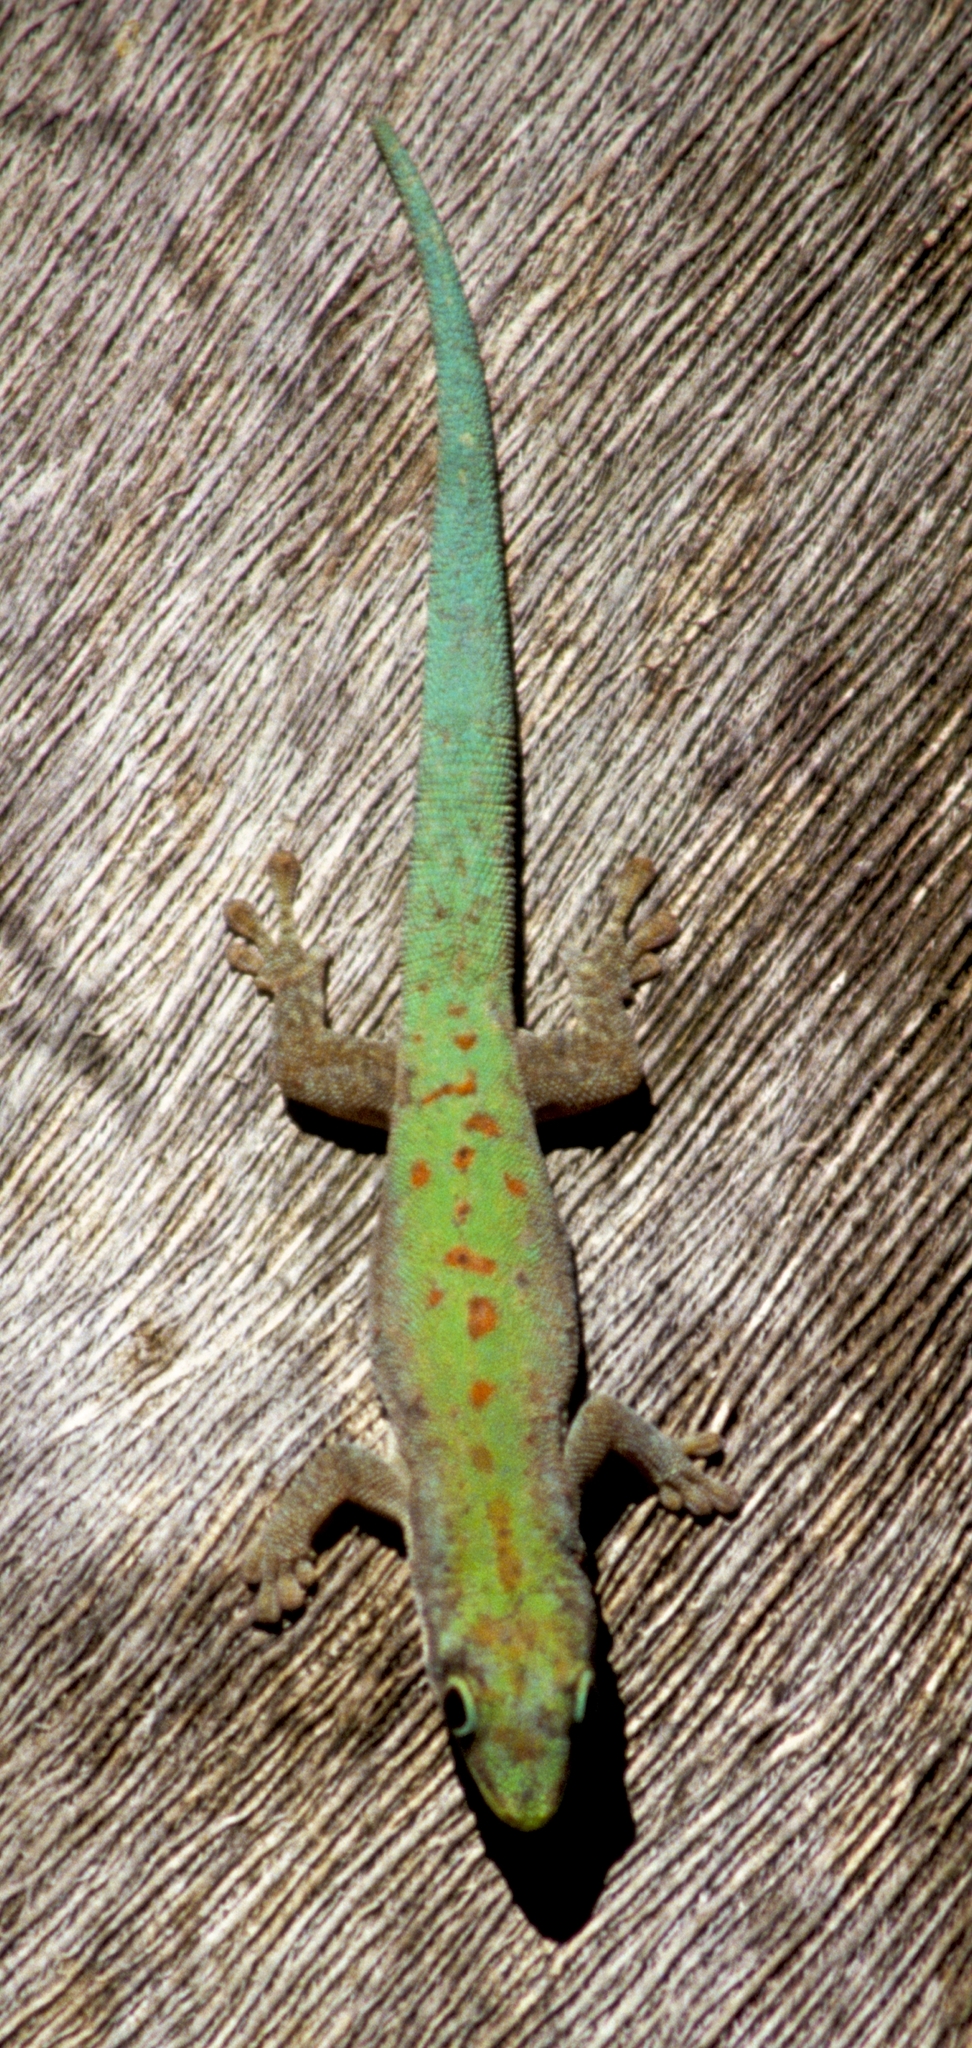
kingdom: Animalia
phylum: Chordata
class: Squamata
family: Gekkonidae
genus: Phelsuma
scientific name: Phelsuma modesta
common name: Modest day gecko
